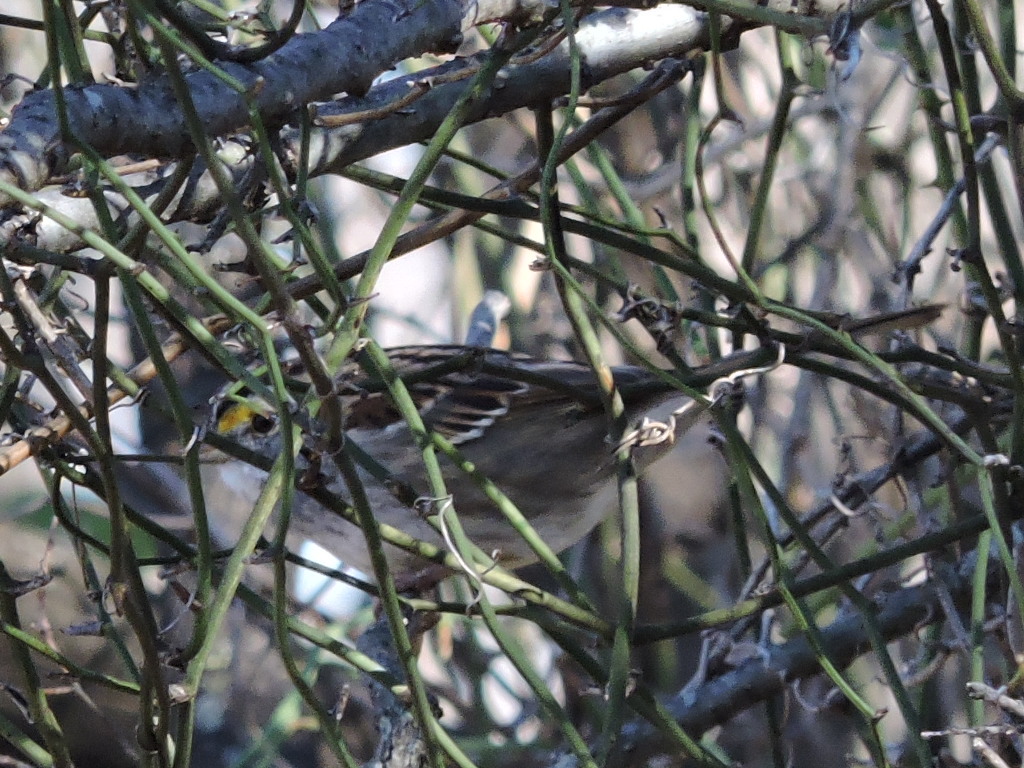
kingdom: Animalia
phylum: Chordata
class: Aves
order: Passeriformes
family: Passerellidae
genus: Zonotrichia
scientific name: Zonotrichia albicollis
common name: White-throated sparrow
